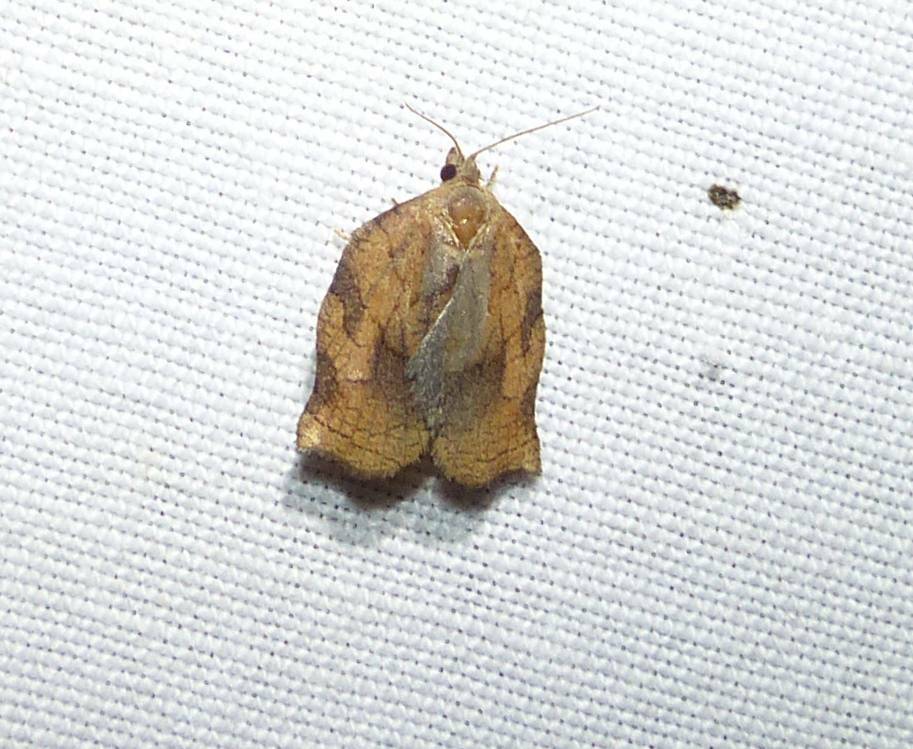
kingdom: Animalia
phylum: Arthropoda
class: Insecta
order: Lepidoptera
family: Tortricidae
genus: Archips
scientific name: Archips purpurana
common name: Omnivorous leafroller
